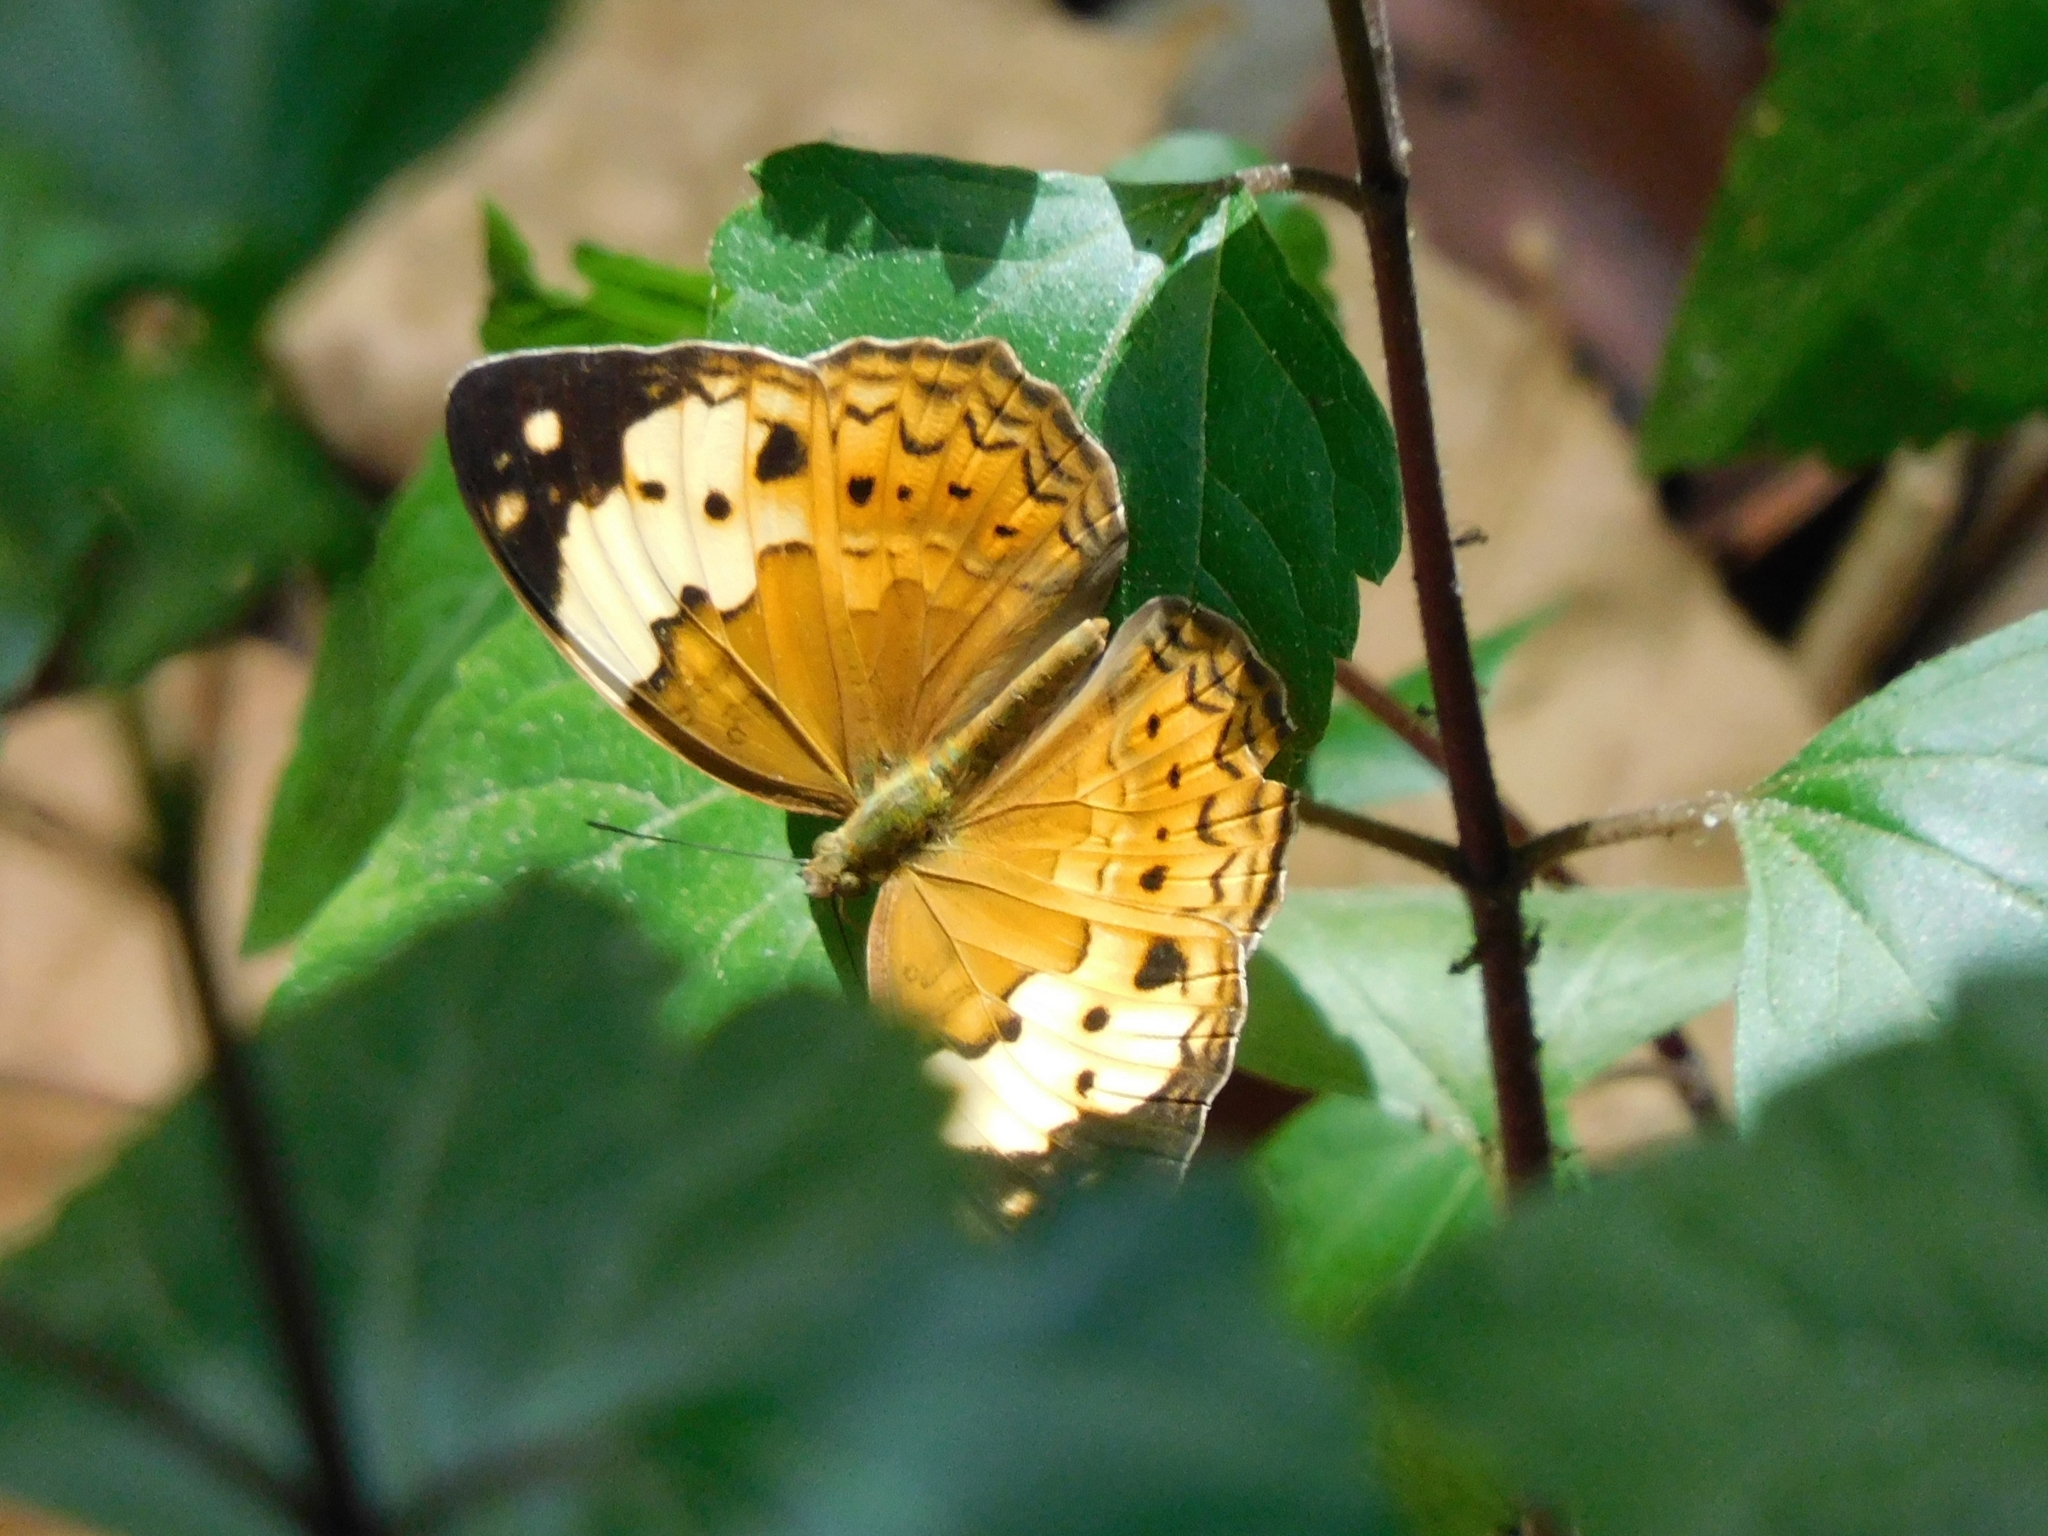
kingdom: Animalia
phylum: Arthropoda
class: Insecta
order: Lepidoptera
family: Nymphalidae
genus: Cupha
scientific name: Cupha erymanthis
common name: Rustic
